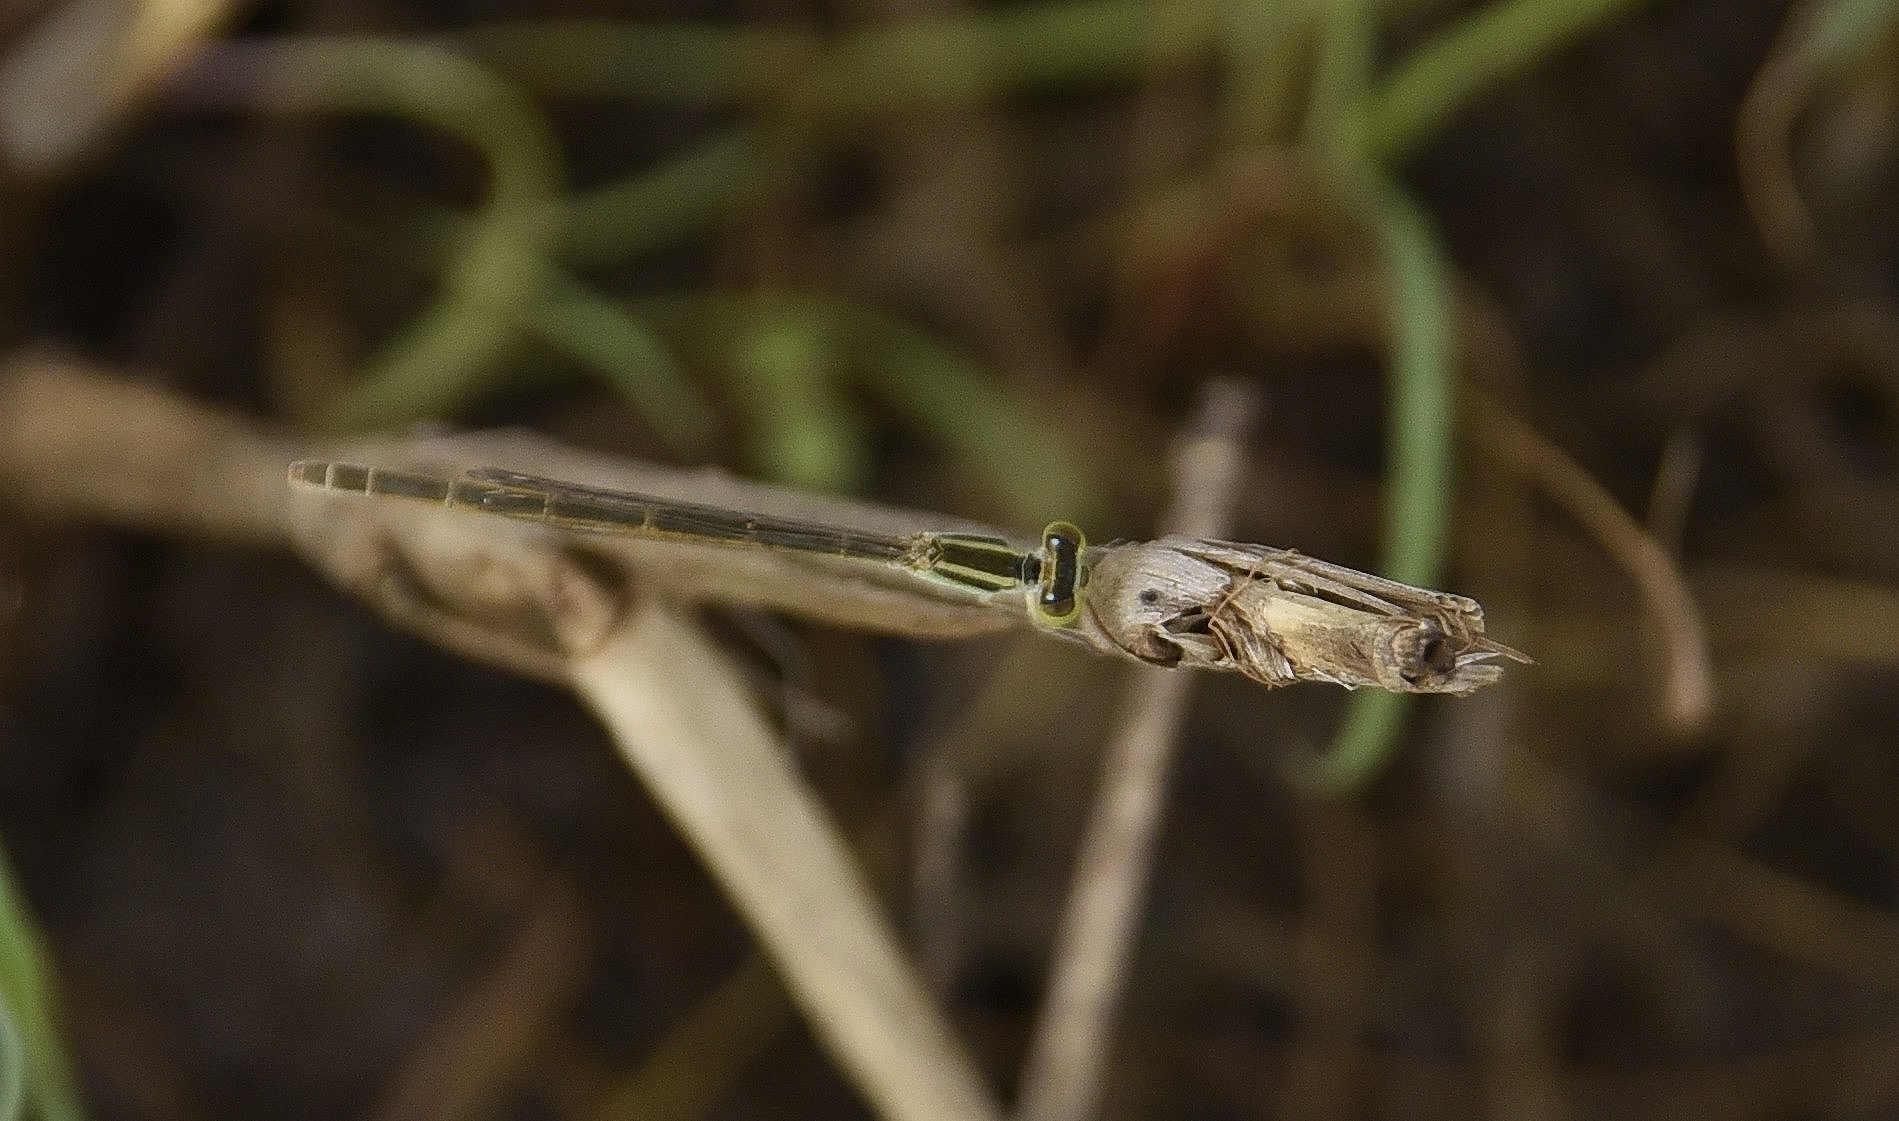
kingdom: Animalia
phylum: Arthropoda
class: Insecta
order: Odonata
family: Coenagrionidae
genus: Ischnura
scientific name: Ischnura rubilio
